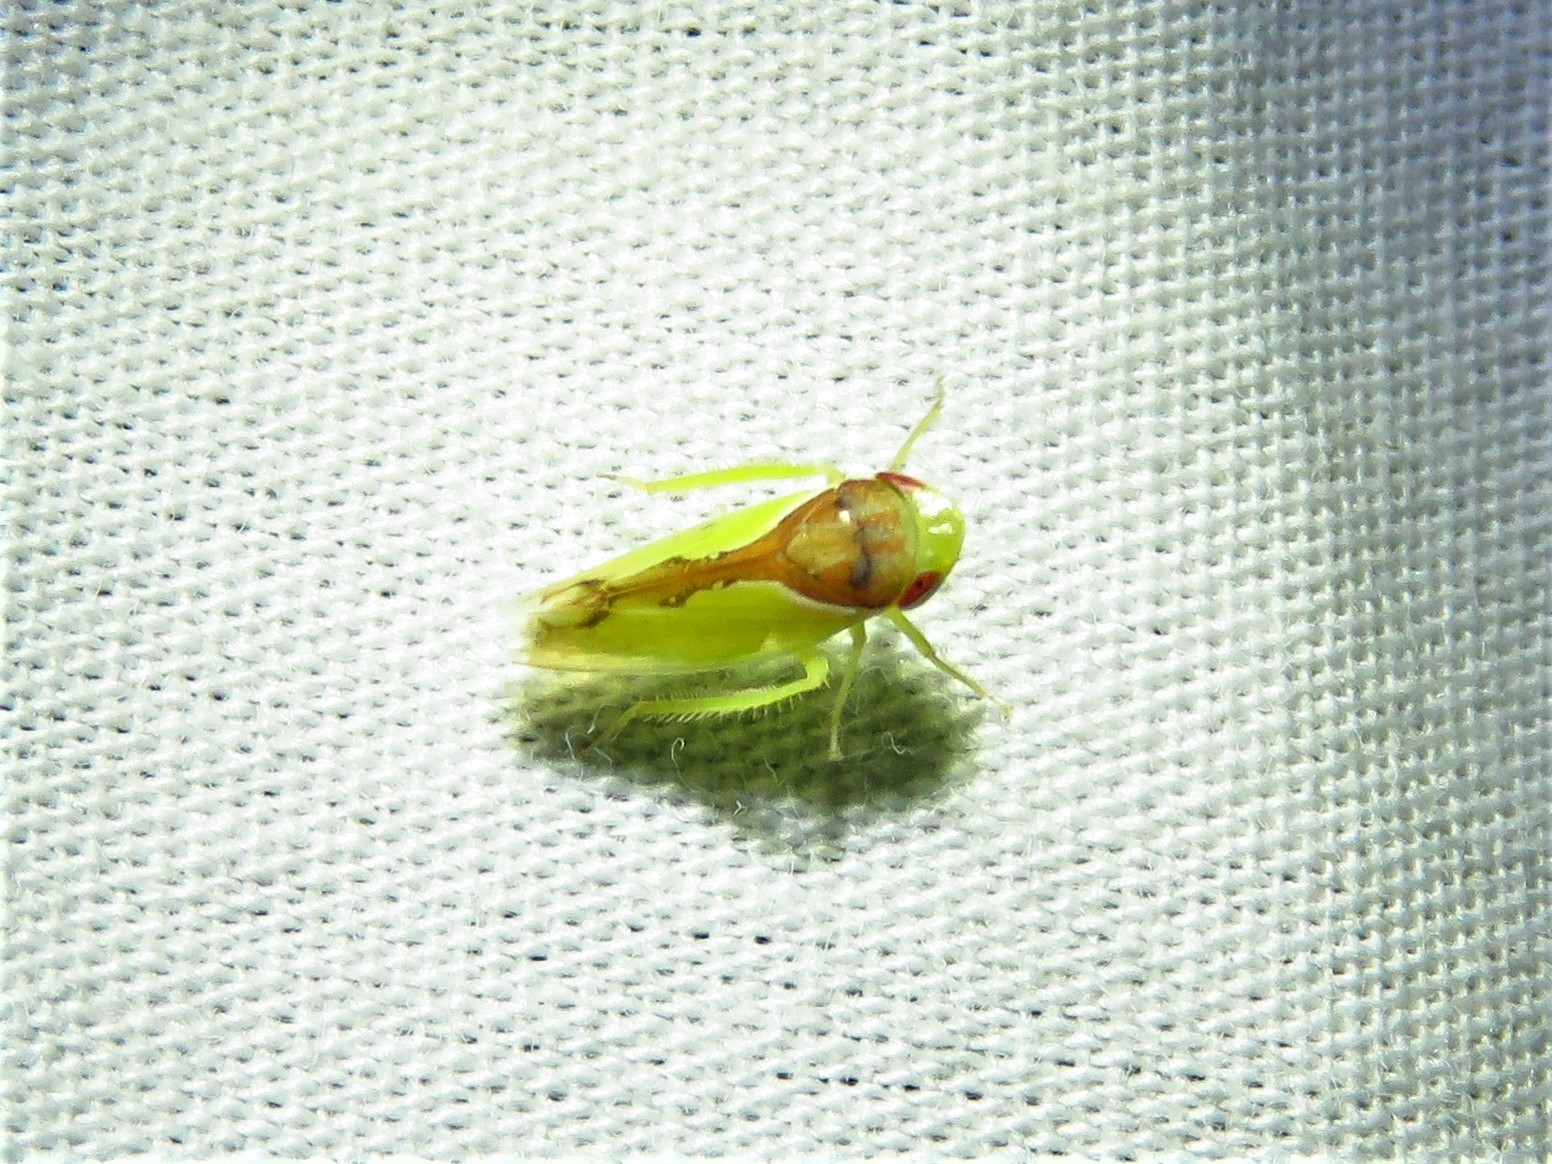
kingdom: Animalia
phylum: Arthropoda
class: Insecta
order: Hemiptera
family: Cicadellidae
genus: Omansobara ing
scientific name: Omansobara ing Omansobara palliolata
